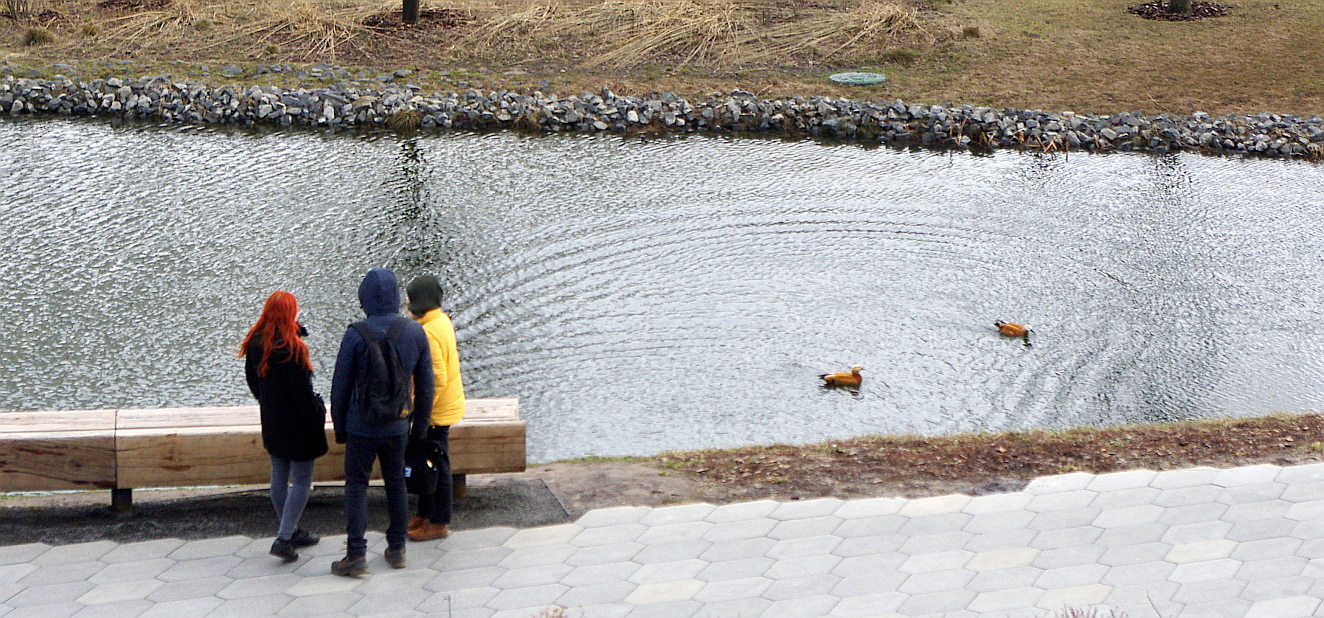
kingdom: Animalia
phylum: Chordata
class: Aves
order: Anseriformes
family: Anatidae
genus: Tadorna
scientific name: Tadorna ferruginea
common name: Ruddy shelduck
